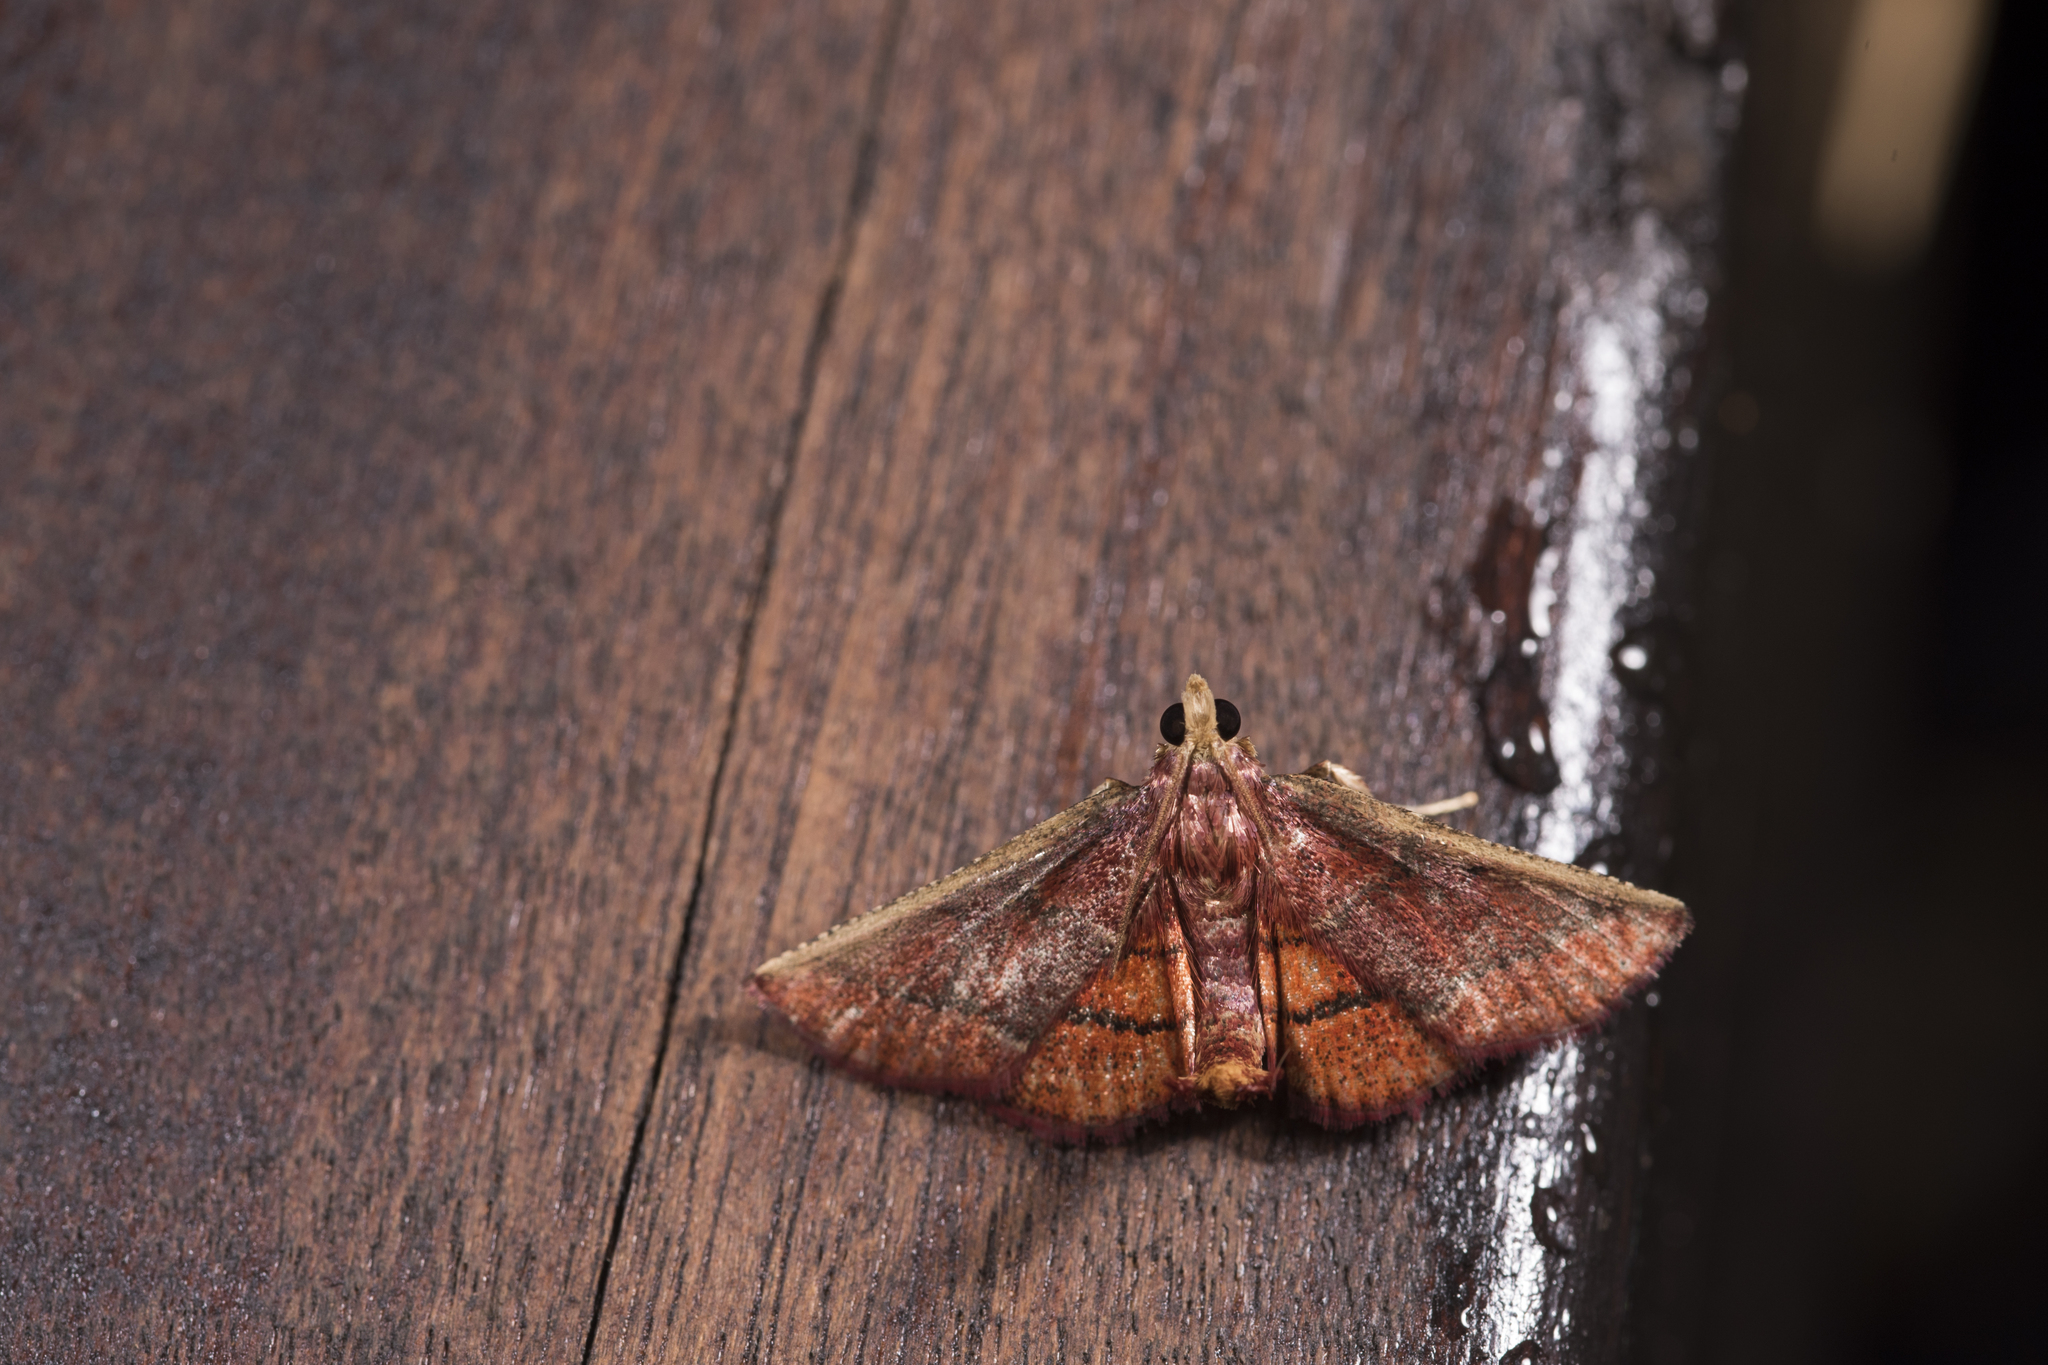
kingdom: Animalia
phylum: Arthropoda
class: Insecta
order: Lepidoptera
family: Pyralidae
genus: Toccolosida
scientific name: Toccolosida
